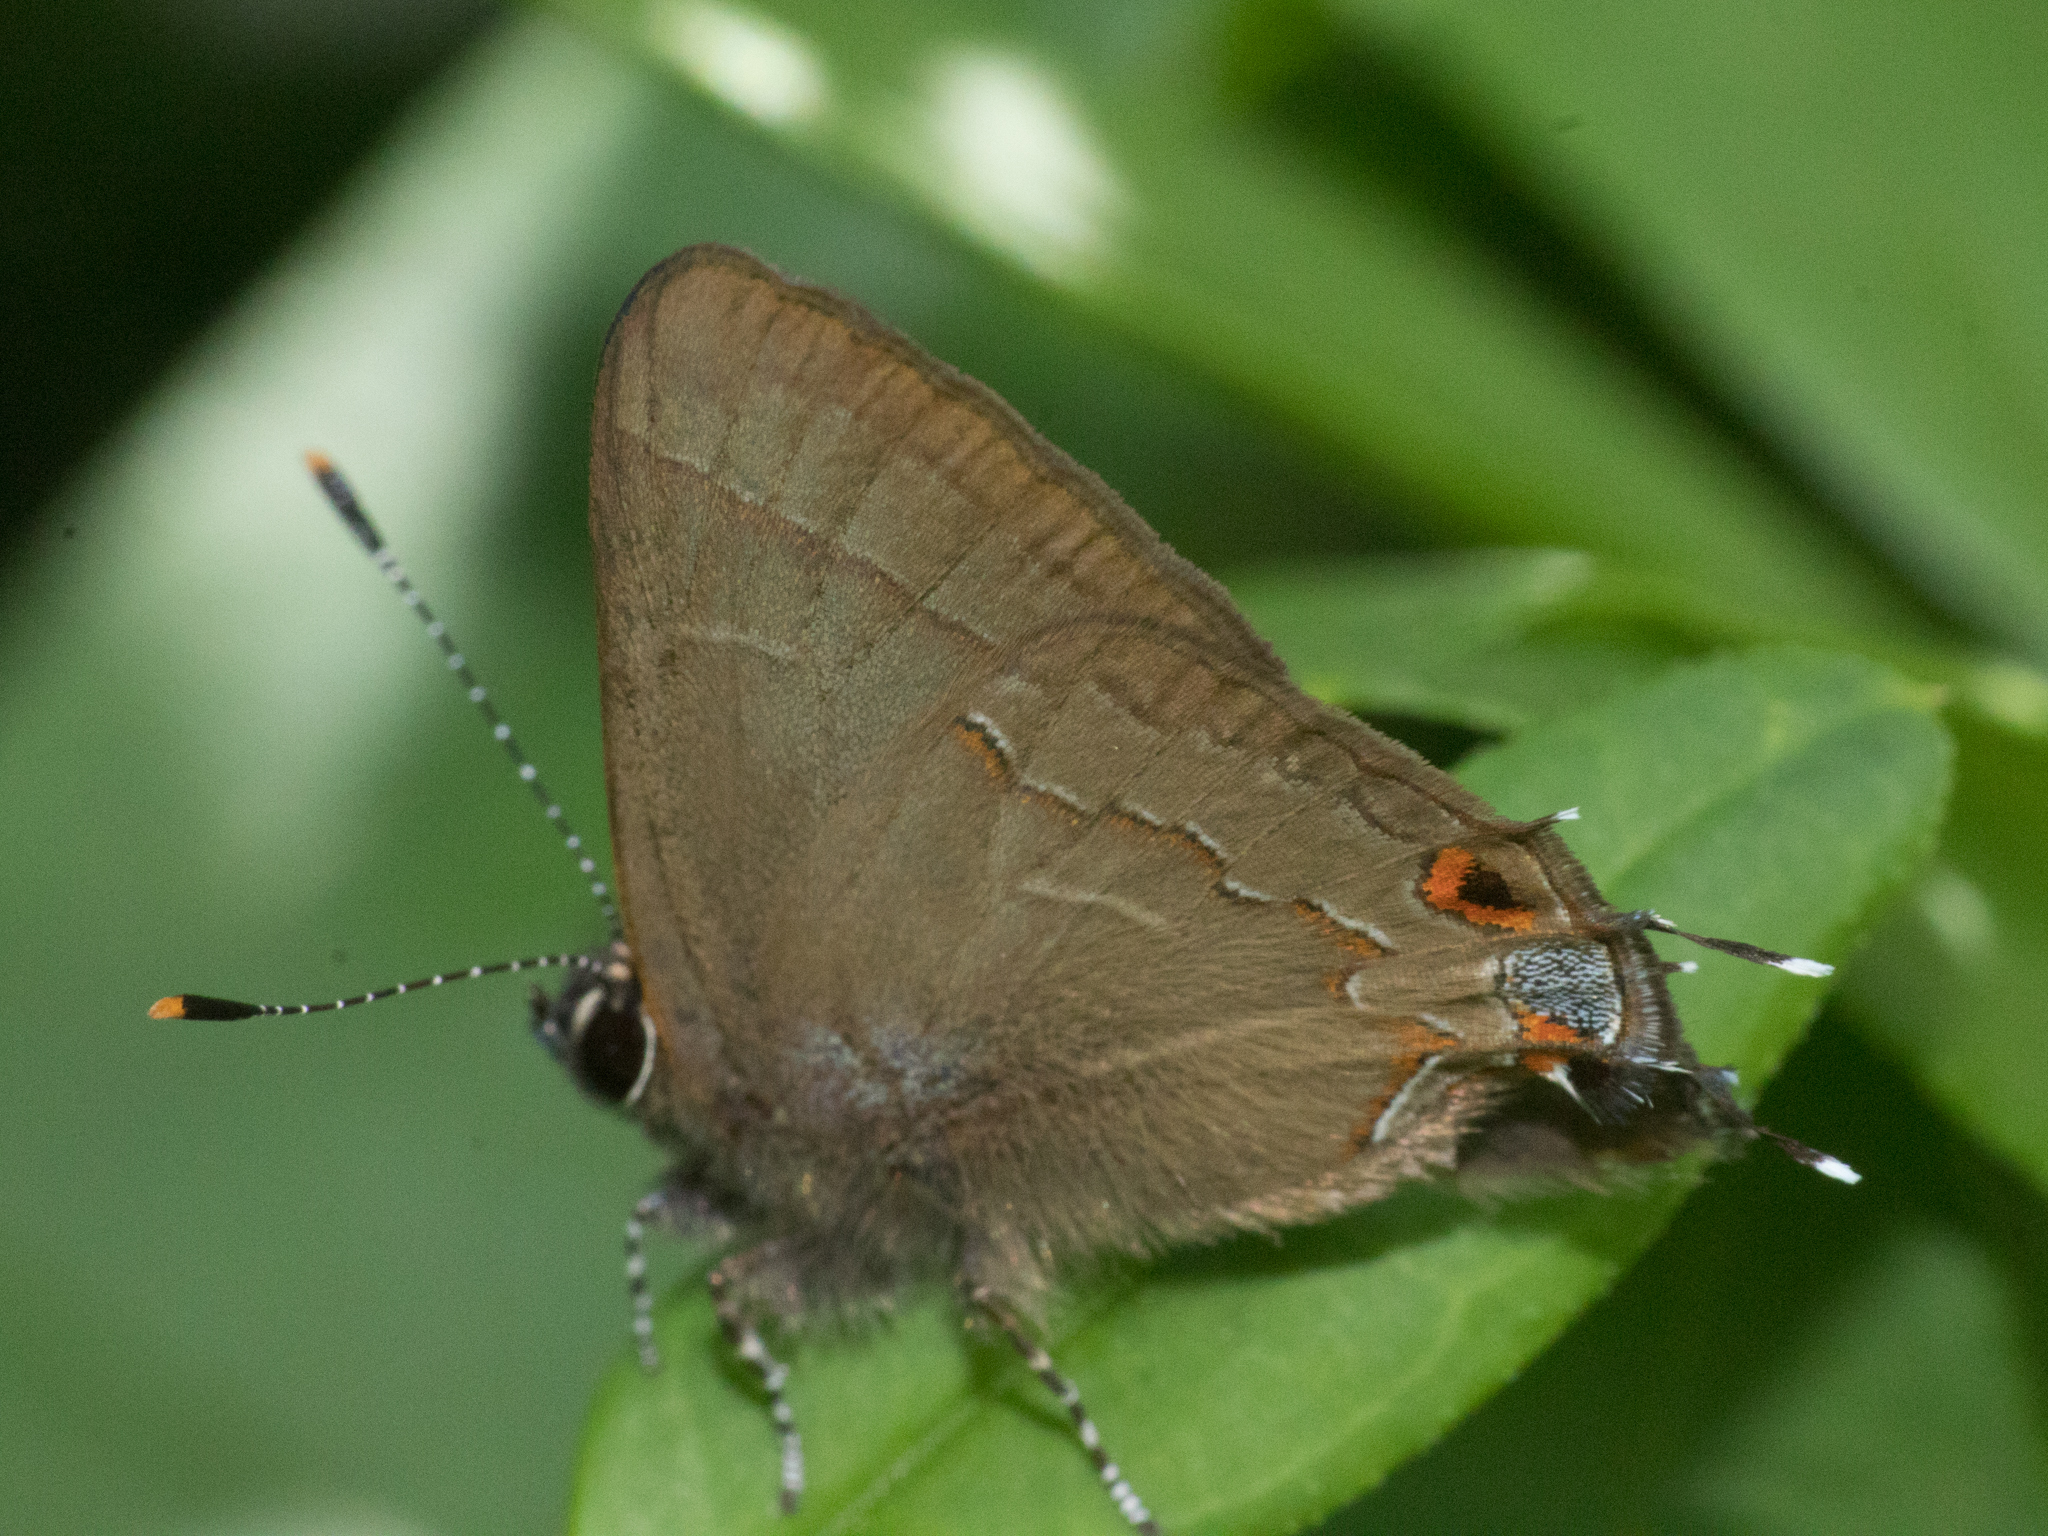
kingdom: Animalia
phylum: Arthropoda
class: Insecta
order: Lepidoptera
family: Lycaenidae
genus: Arzecla
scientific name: Arzecla
